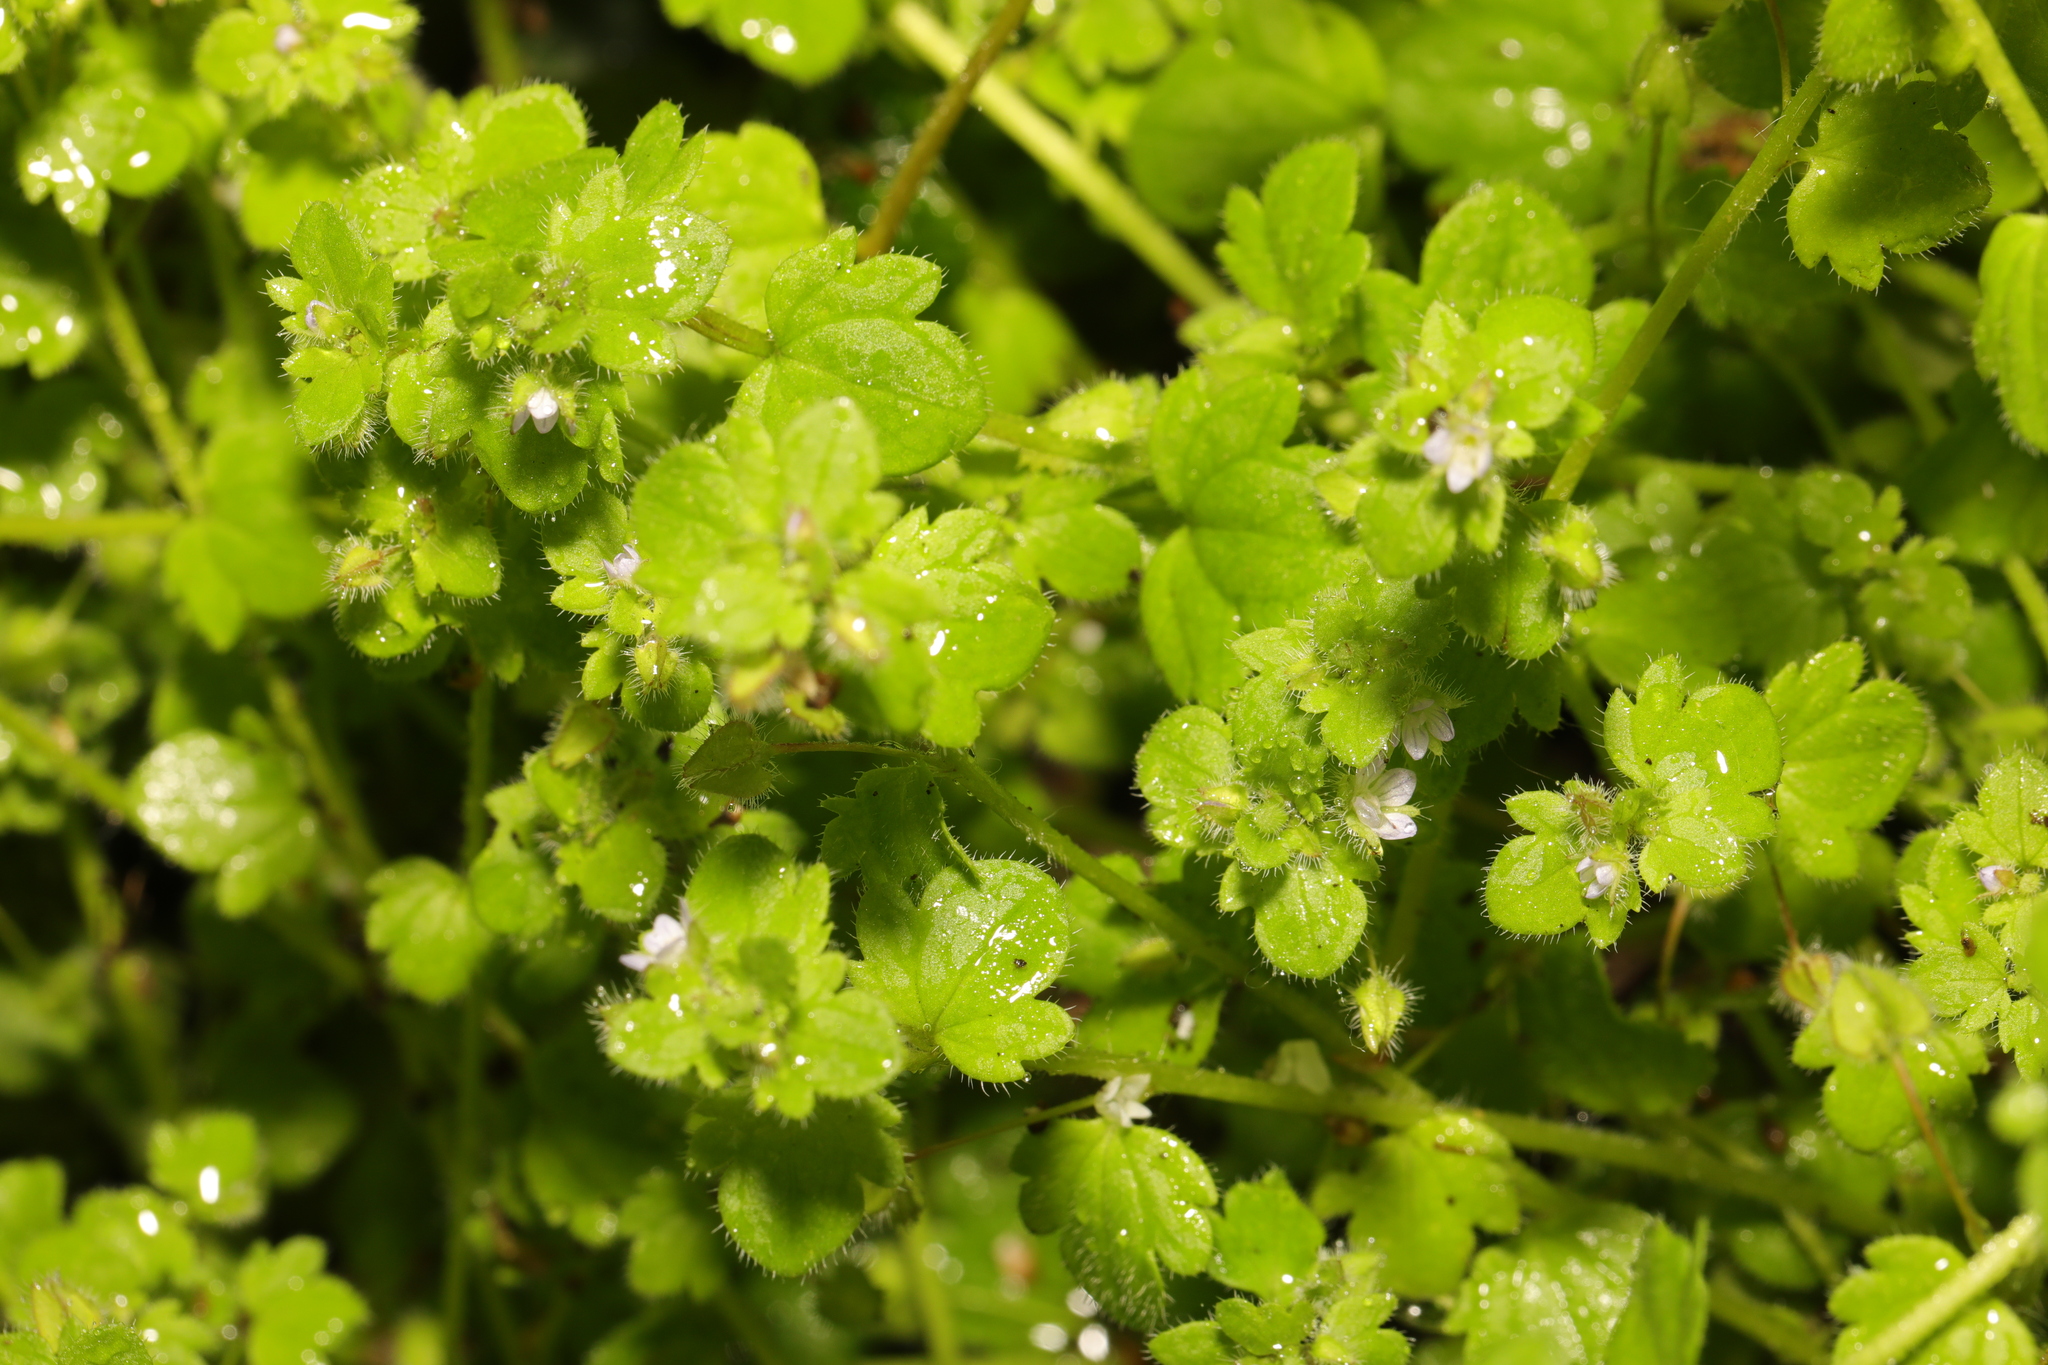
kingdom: Plantae
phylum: Tracheophyta
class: Magnoliopsida
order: Lamiales
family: Plantaginaceae
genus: Veronica
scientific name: Veronica sublobata
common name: False ivy-leaved speedwell
